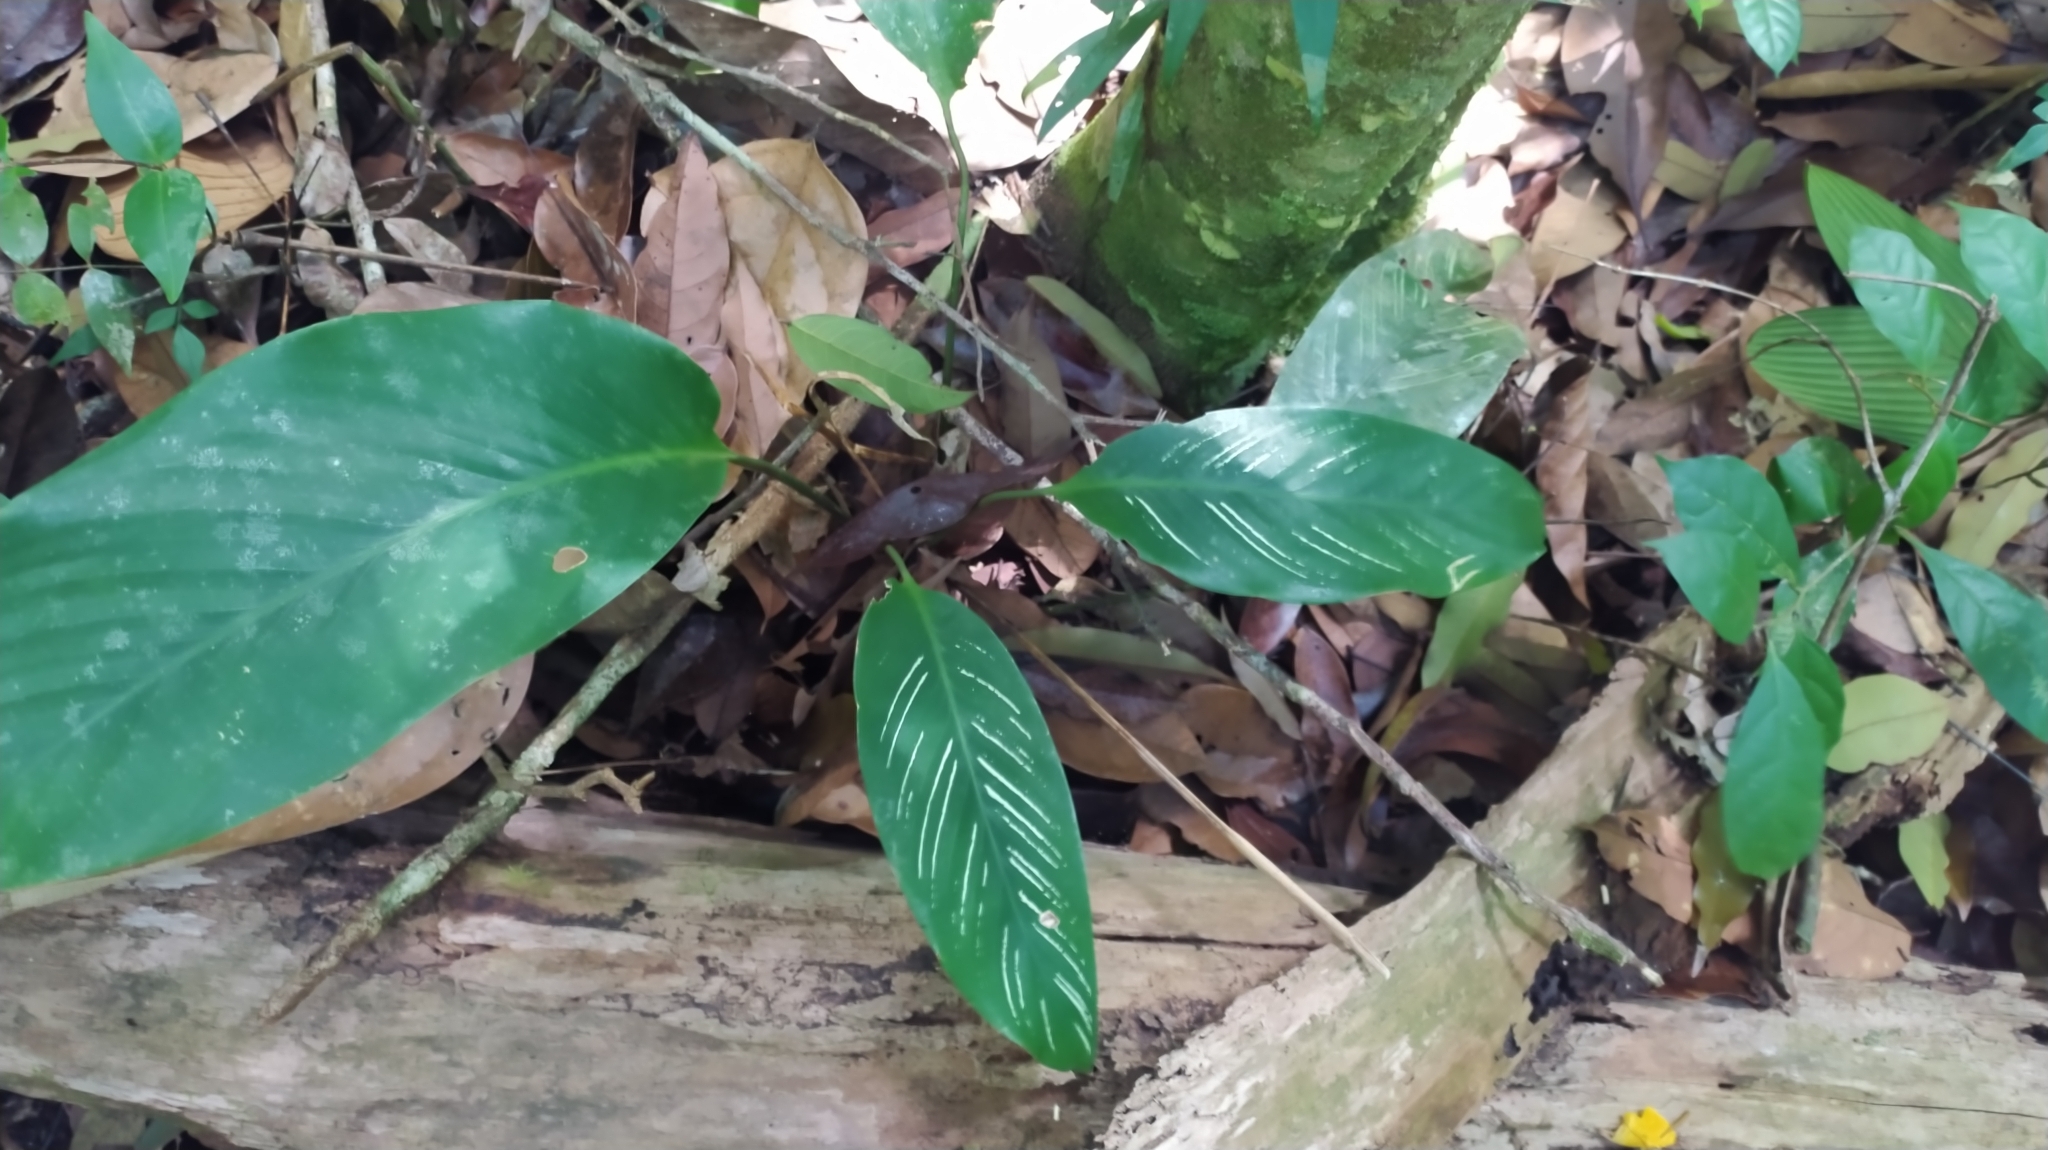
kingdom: Plantae
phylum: Tracheophyta
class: Liliopsida
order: Zingiberales
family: Marantaceae
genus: Goeppertia
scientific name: Goeppertia elliptica
